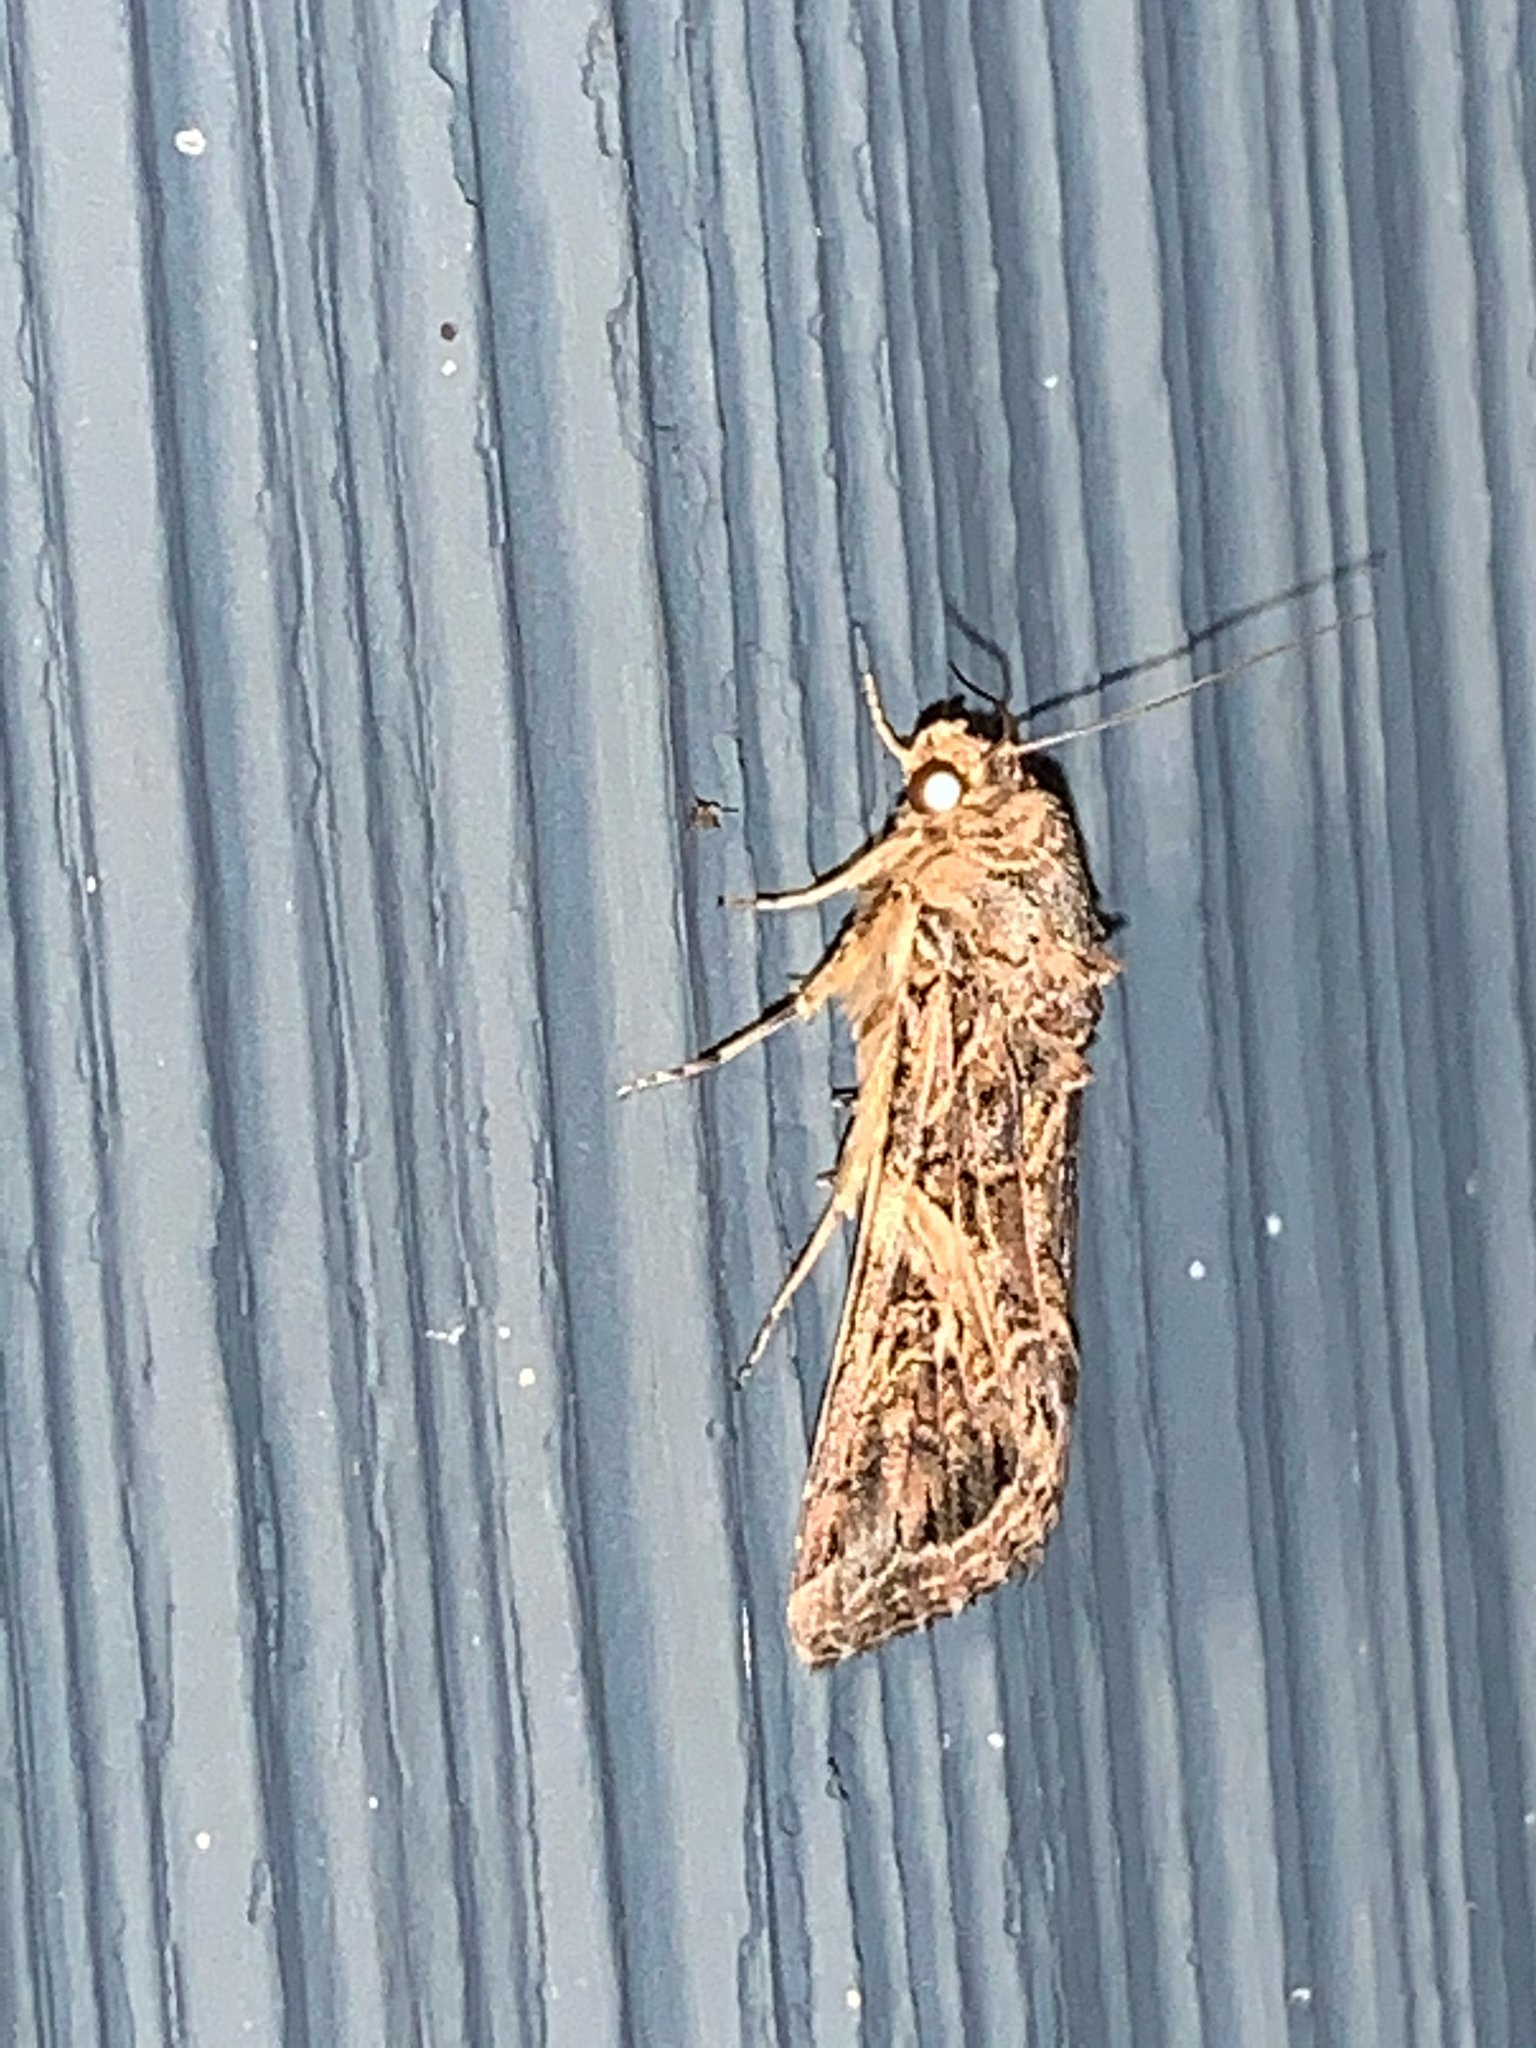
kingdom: Animalia
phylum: Arthropoda
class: Insecta
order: Lepidoptera
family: Noctuidae
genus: Spodoptera
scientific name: Spodoptera ornithogalli
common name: Yellow-striped armyworm
